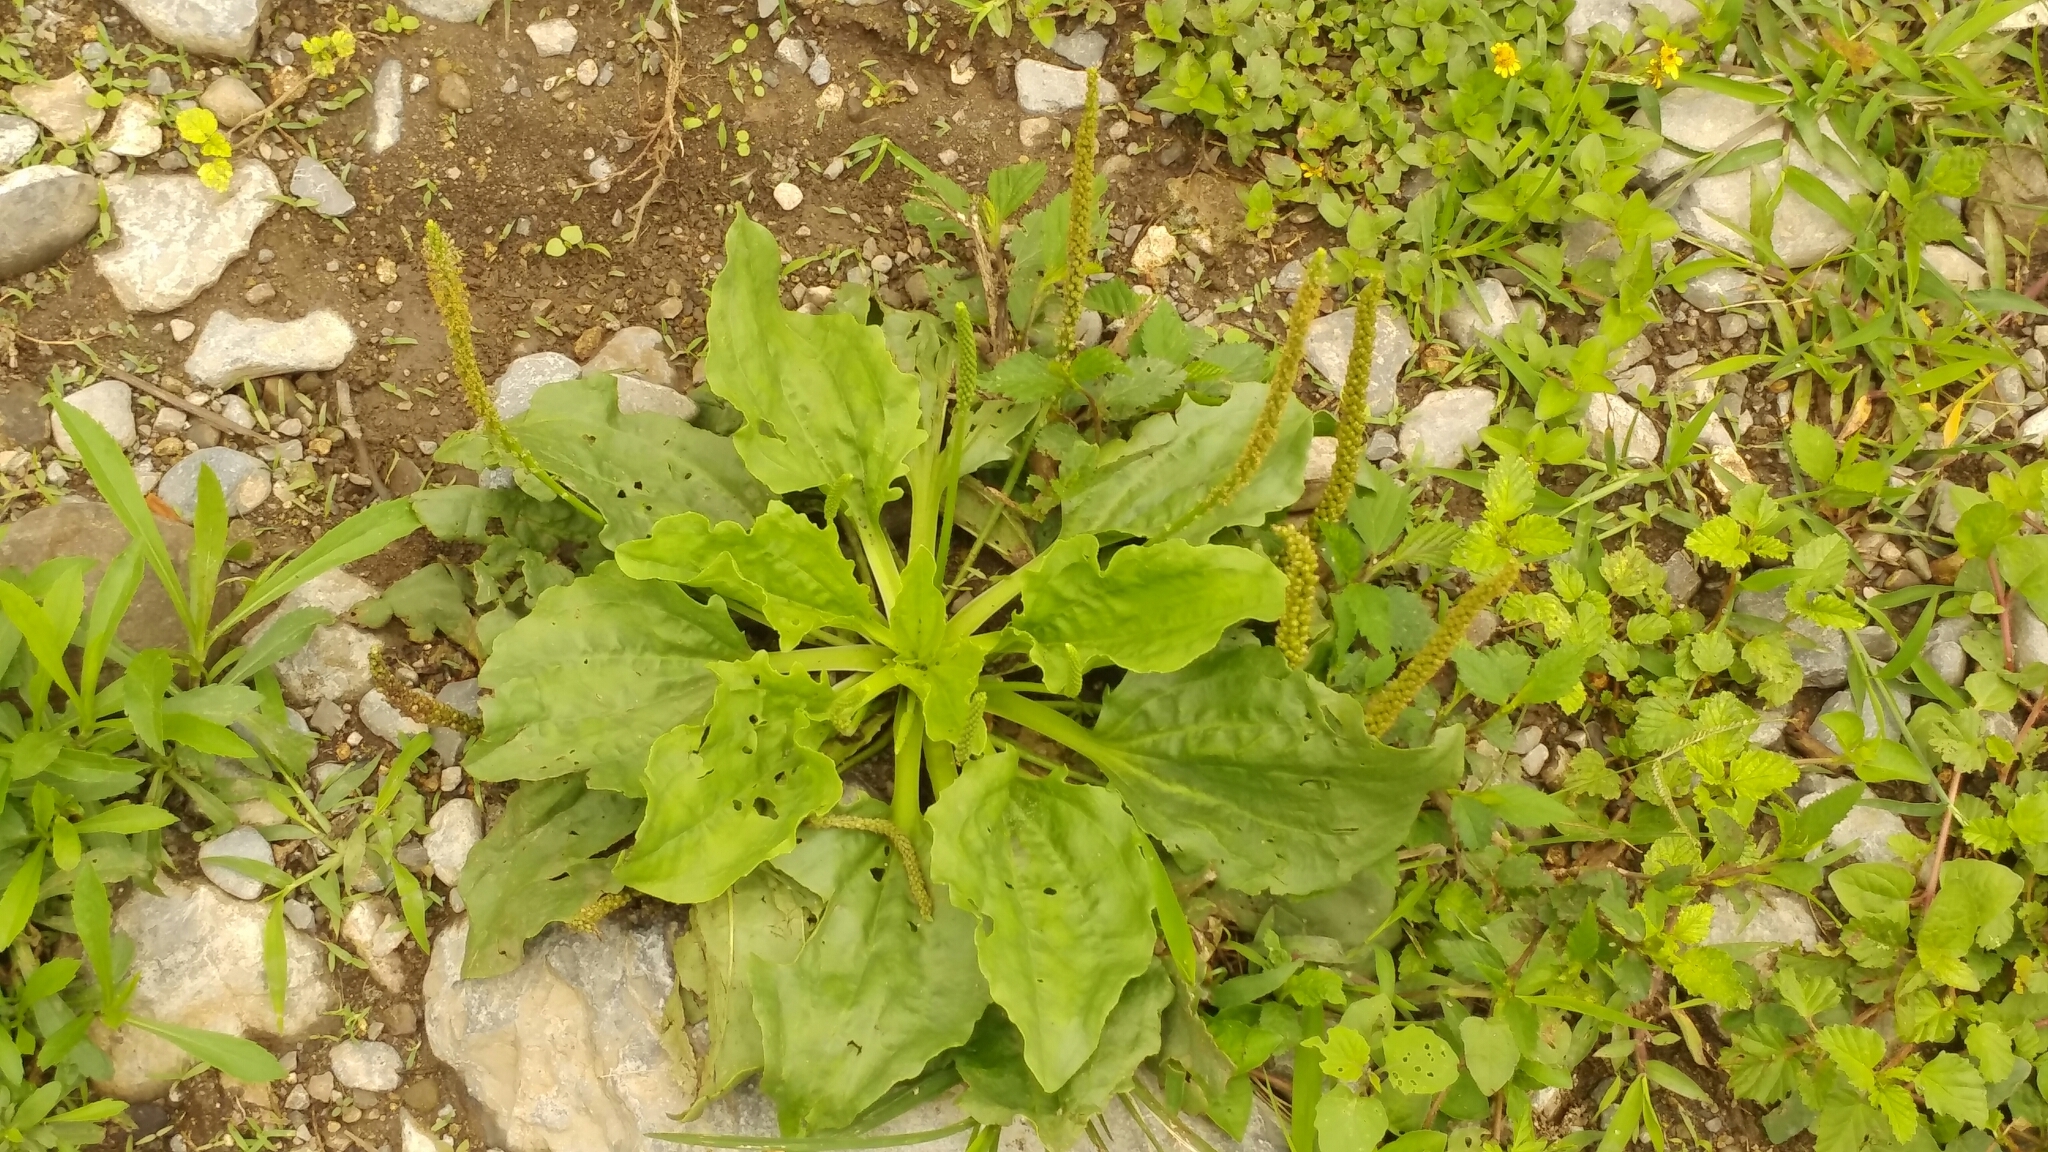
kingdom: Plantae
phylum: Tracheophyta
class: Magnoliopsida
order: Lamiales
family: Plantaginaceae
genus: Plantago
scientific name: Plantago major
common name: Common plantain
